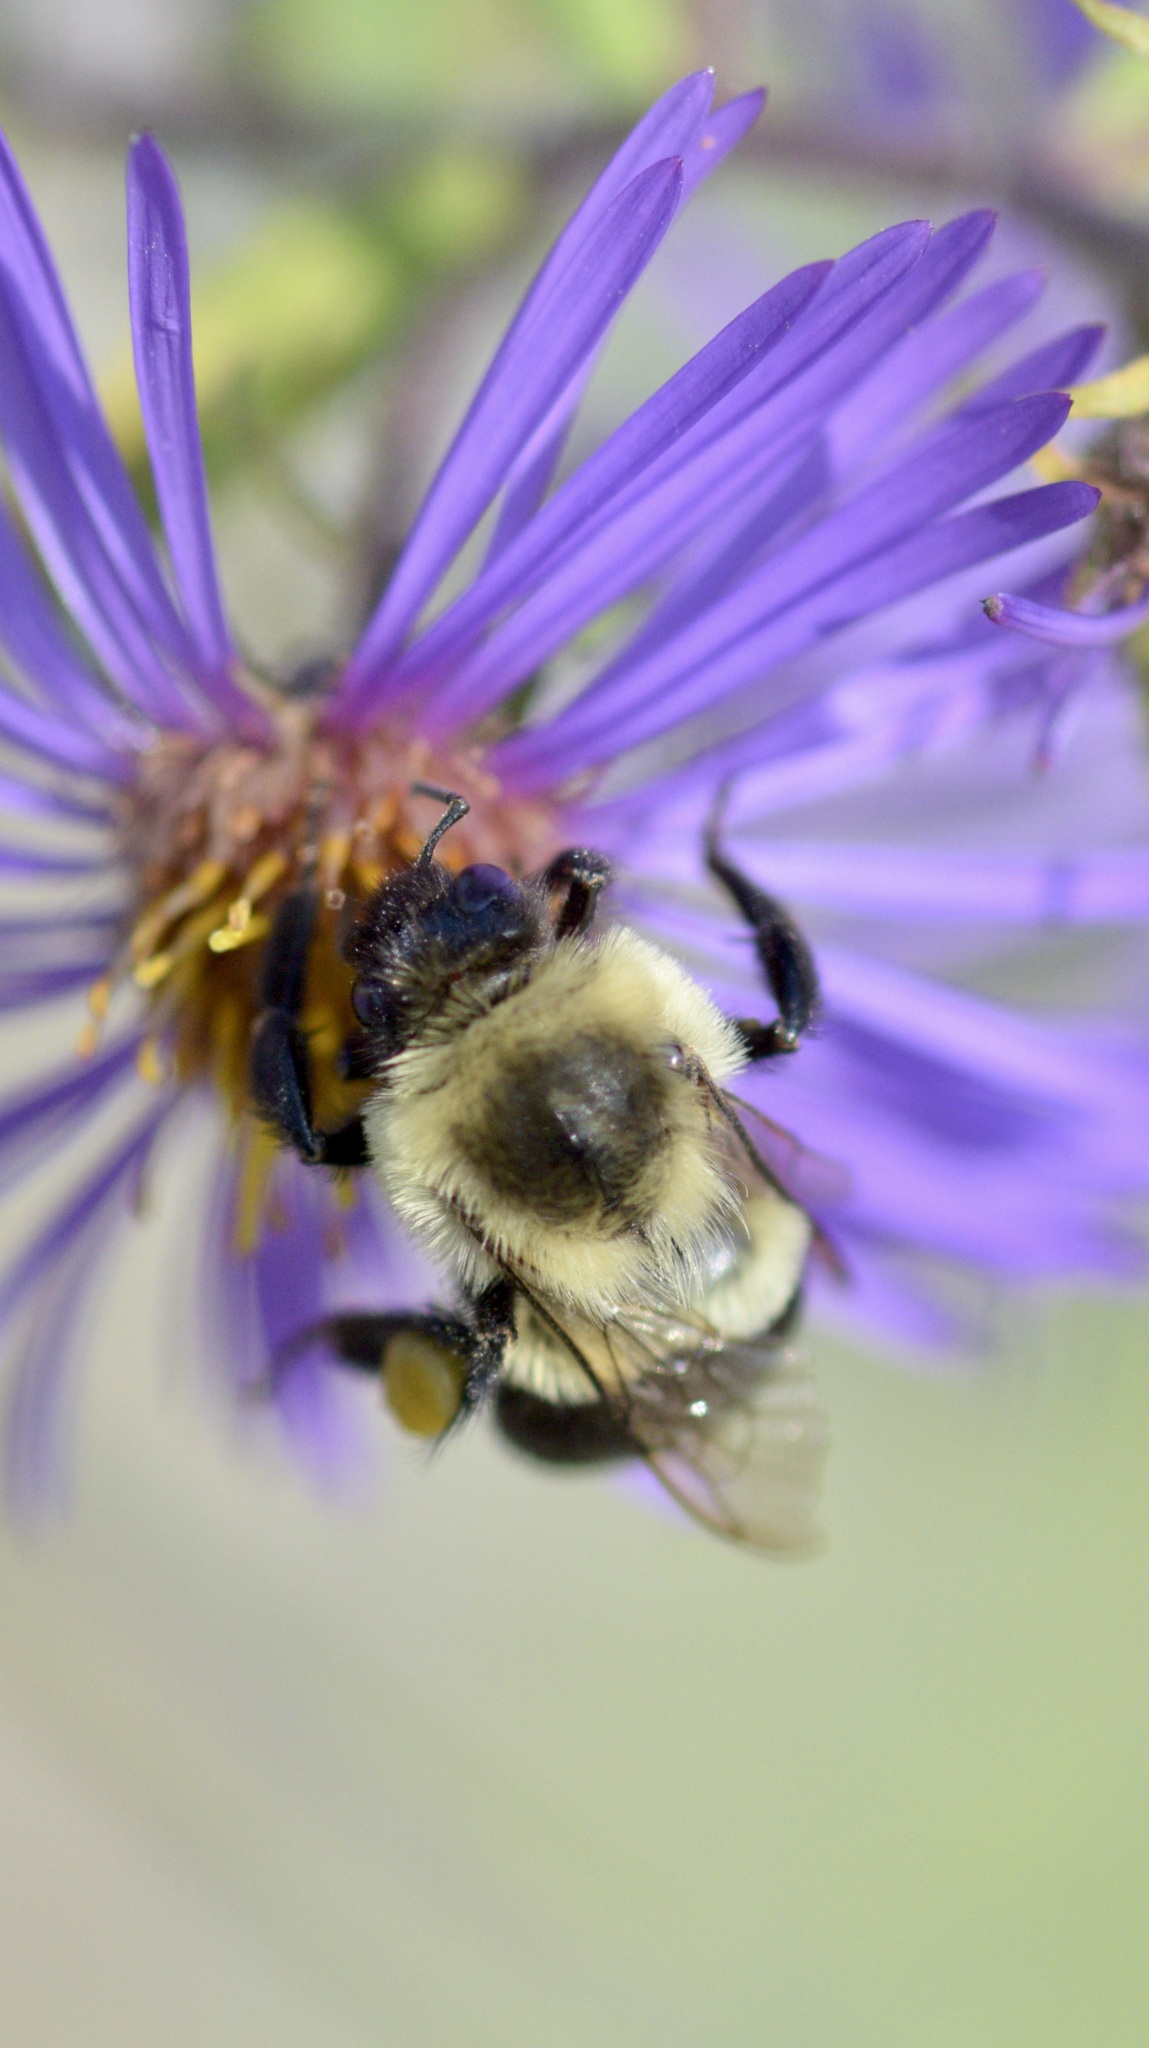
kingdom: Animalia
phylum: Arthropoda
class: Insecta
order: Hymenoptera
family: Apidae
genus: Bombus
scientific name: Bombus impatiens
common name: Common eastern bumble bee
